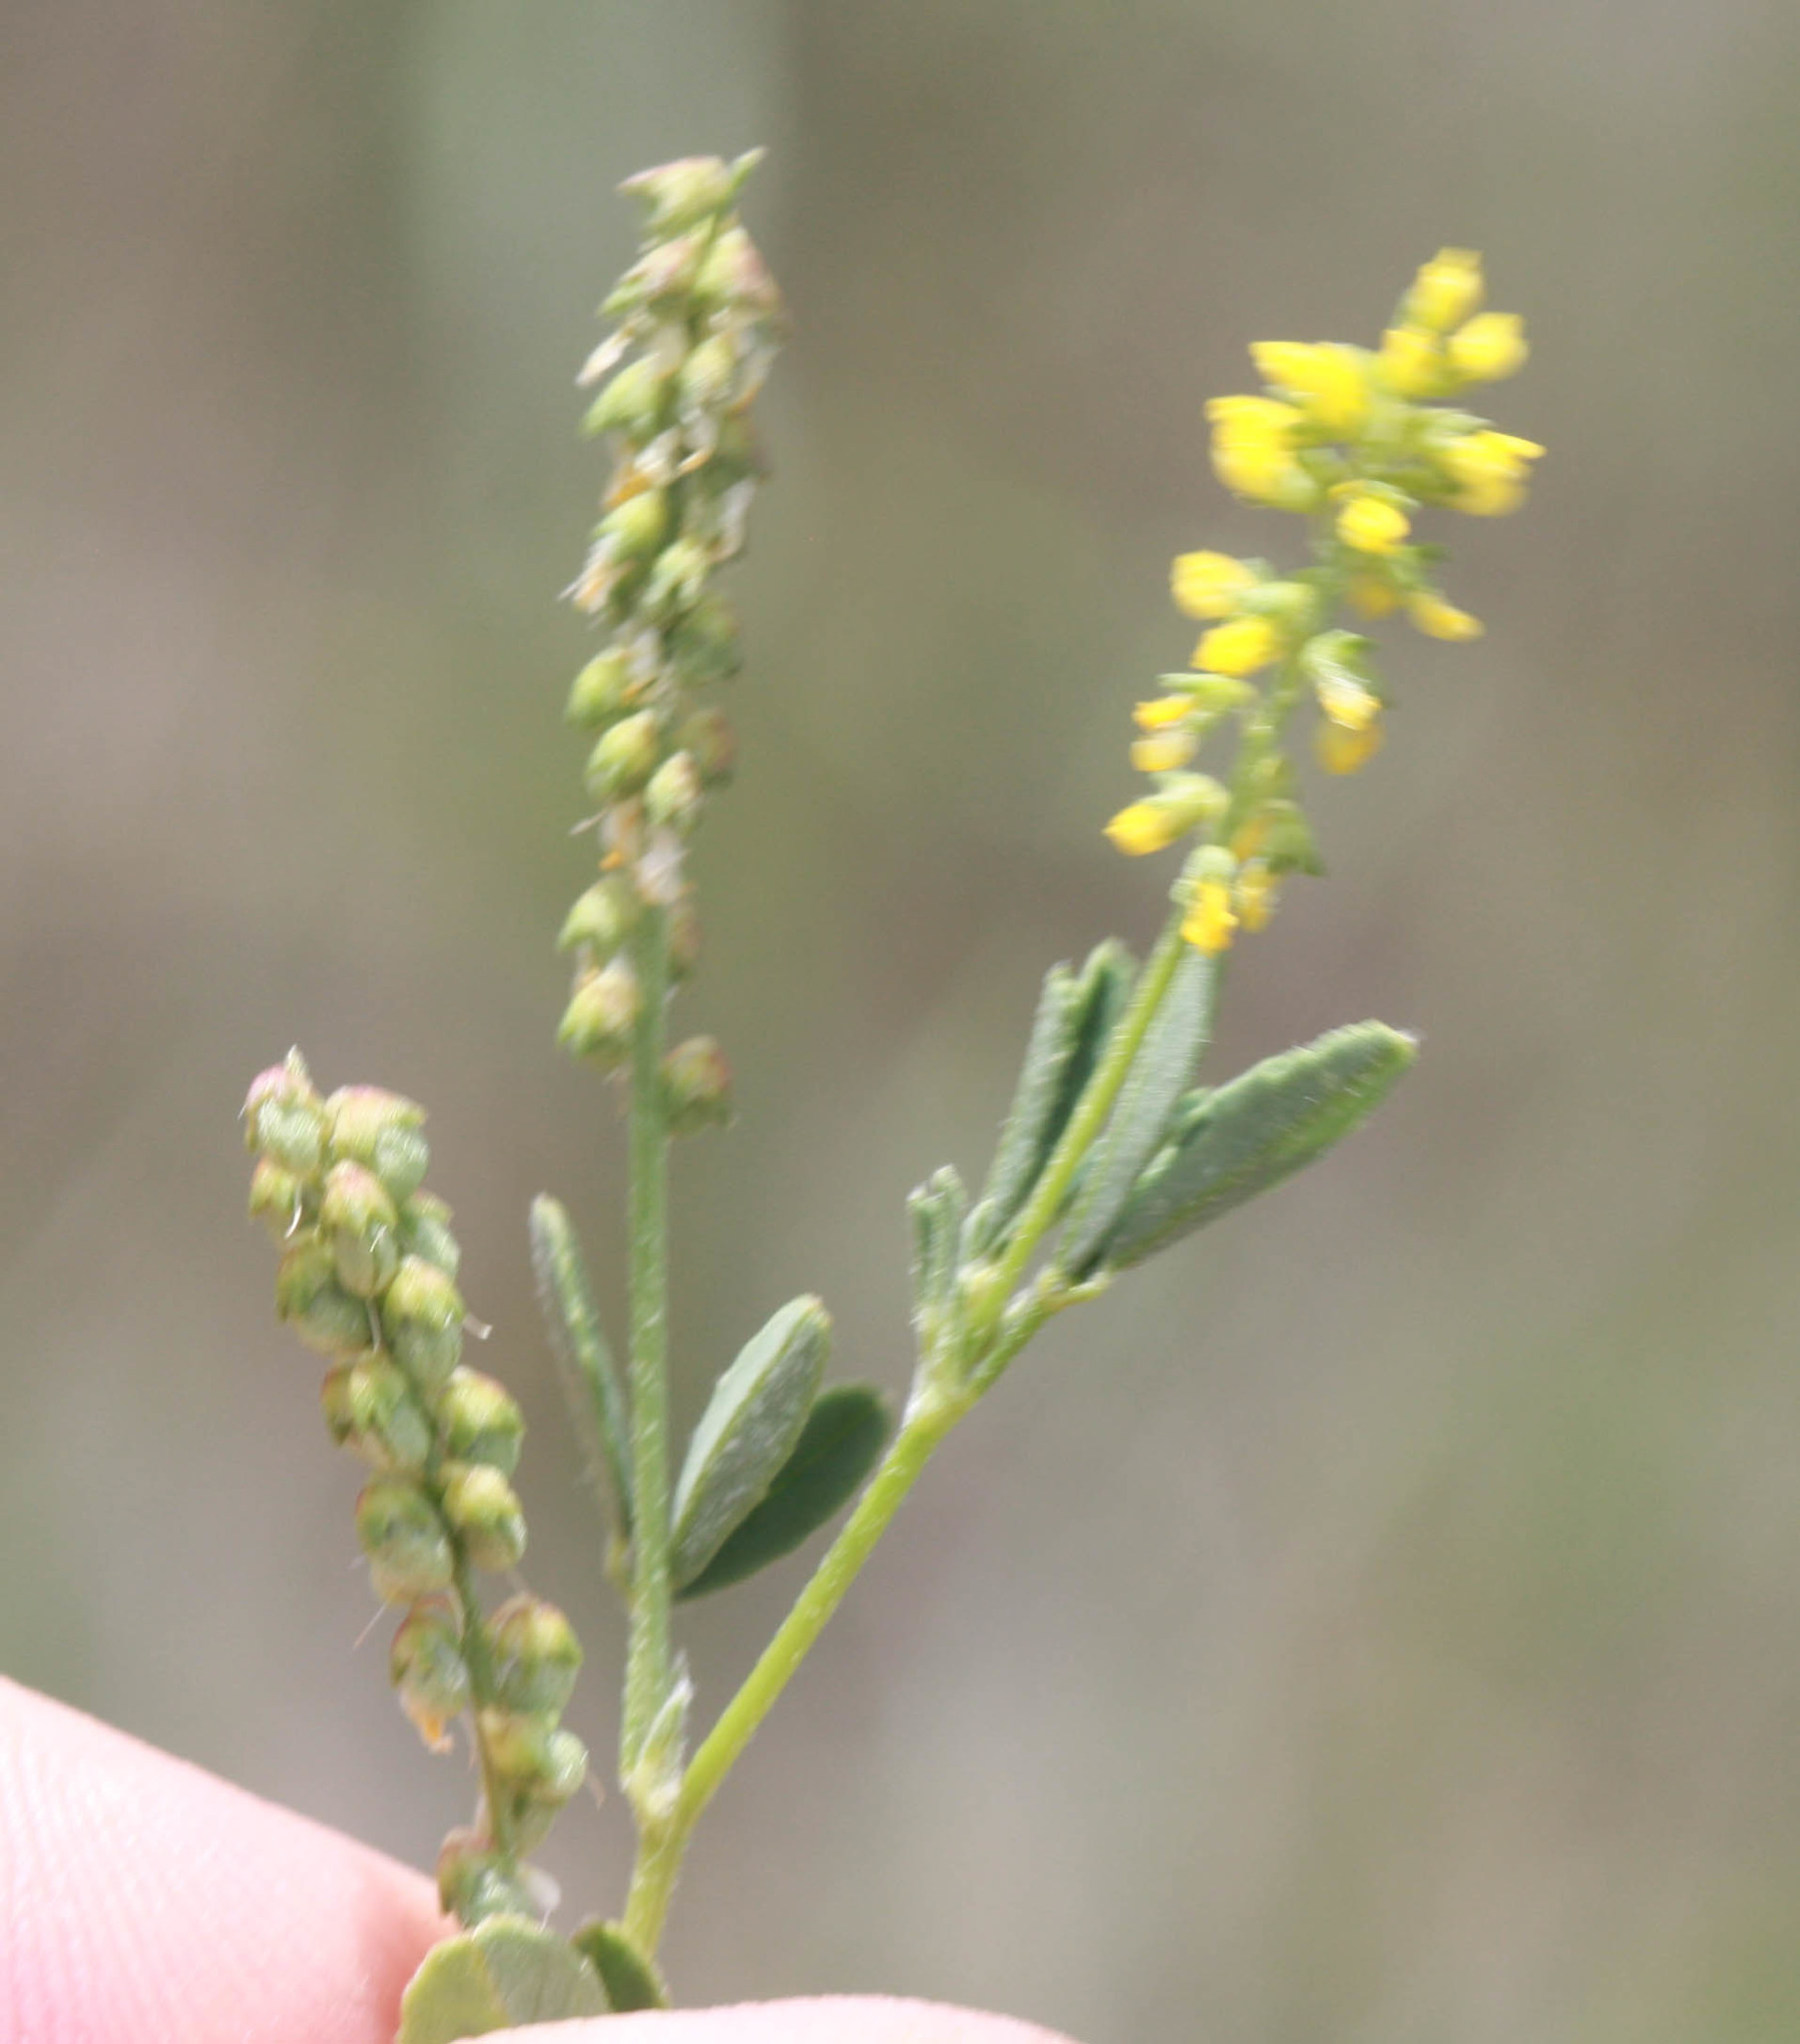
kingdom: Plantae
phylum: Tracheophyta
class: Magnoliopsida
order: Fabales
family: Fabaceae
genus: Melilotus
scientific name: Melilotus indicus
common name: Small melilot
